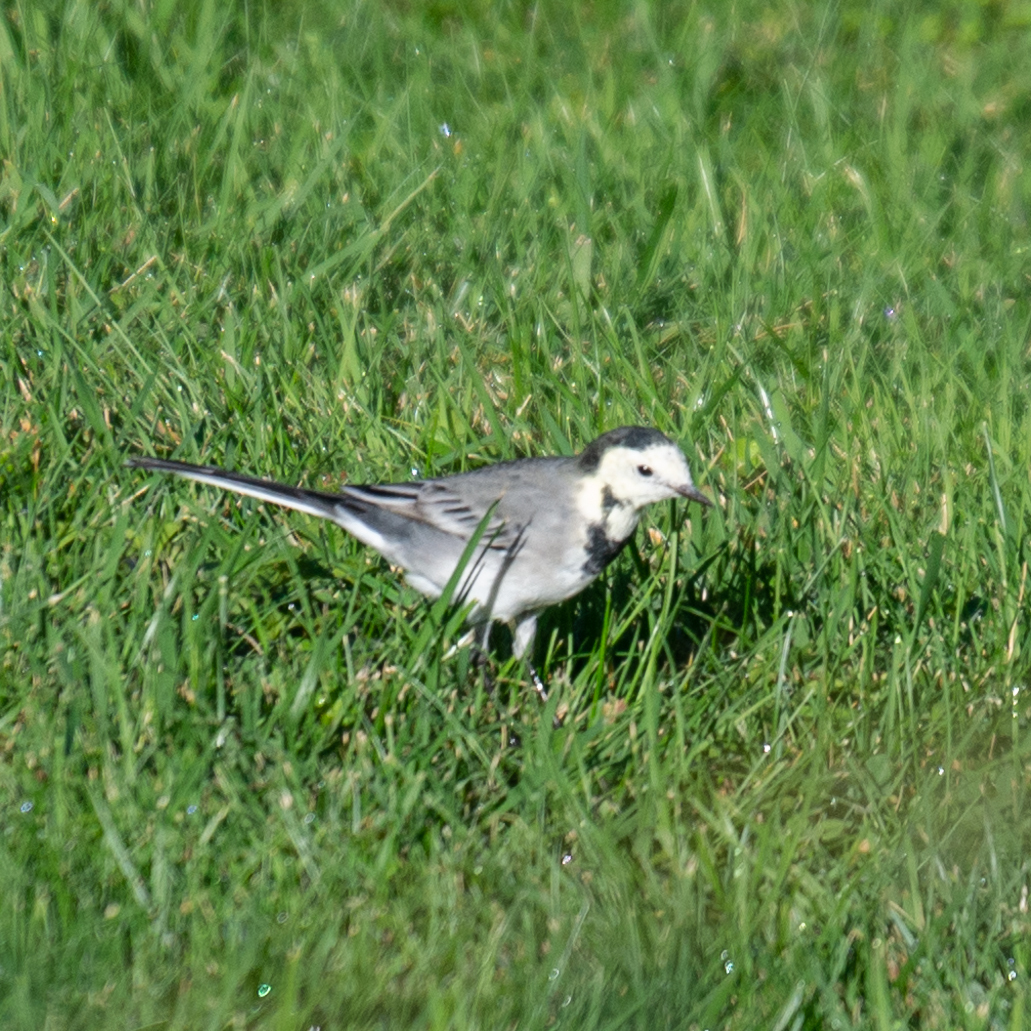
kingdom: Animalia
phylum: Chordata
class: Aves
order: Passeriformes
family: Motacillidae
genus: Motacilla
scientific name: Motacilla alba
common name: White wagtail
